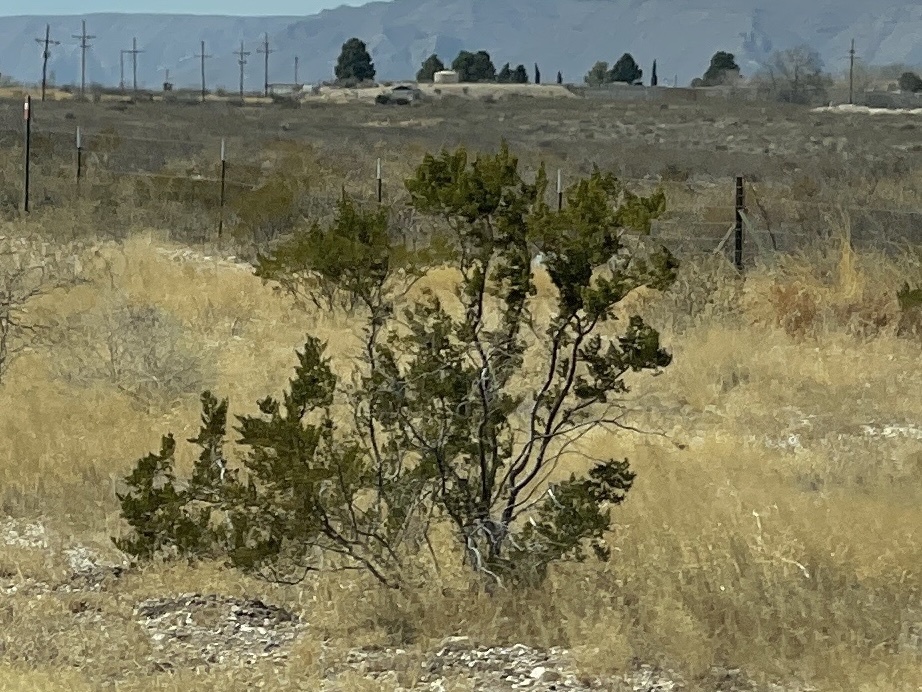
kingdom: Plantae
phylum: Tracheophyta
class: Magnoliopsida
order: Zygophyllales
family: Zygophyllaceae
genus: Larrea
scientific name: Larrea tridentata
